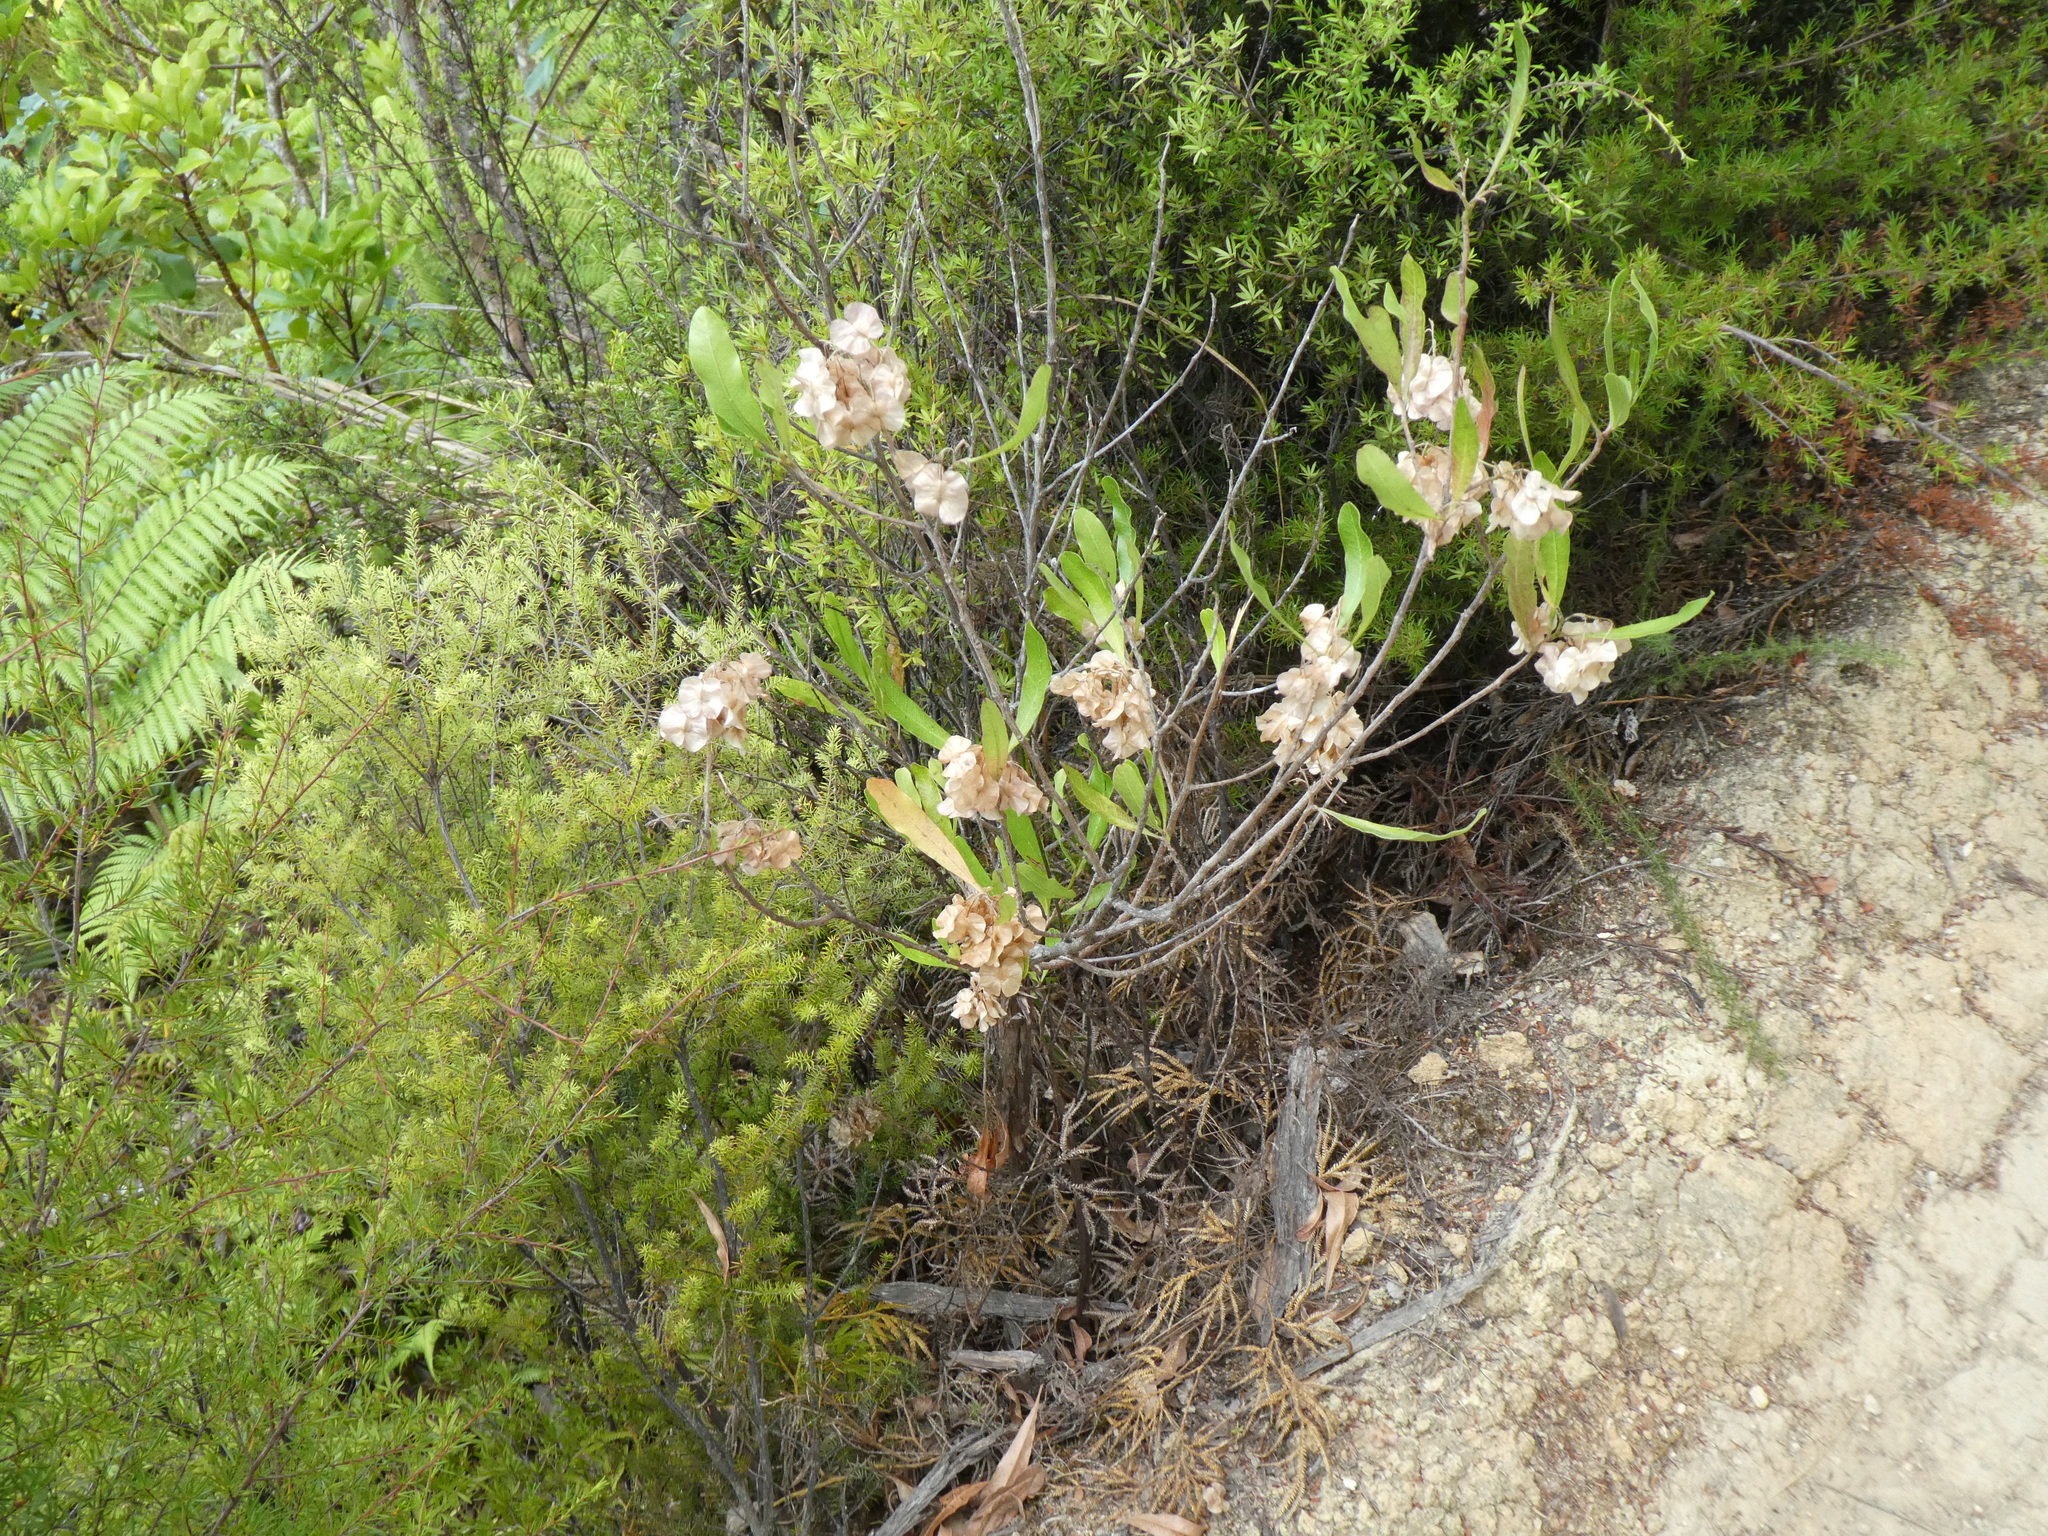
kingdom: Plantae
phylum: Tracheophyta
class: Magnoliopsida
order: Sapindales
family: Sapindaceae
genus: Dodonaea
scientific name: Dodonaea viscosa
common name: Hopbush
